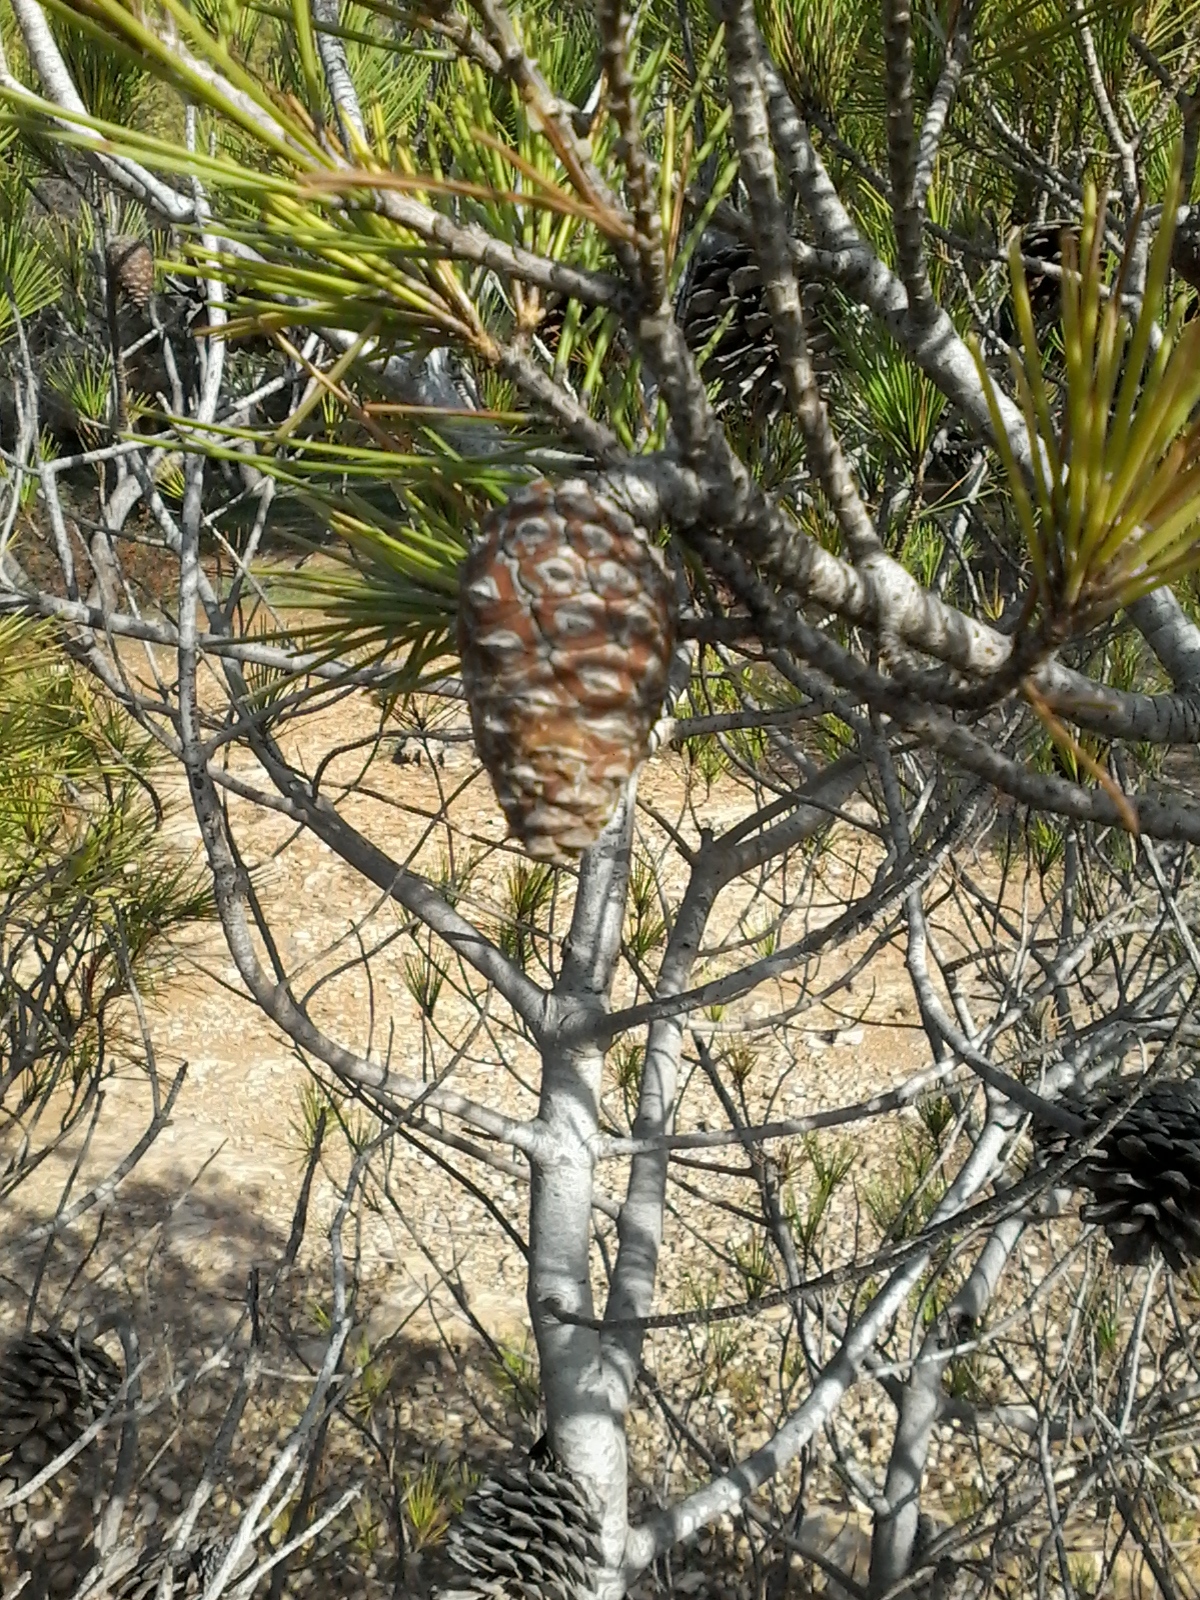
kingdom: Plantae
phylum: Tracheophyta
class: Pinopsida
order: Pinales
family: Pinaceae
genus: Pinus
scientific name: Pinus halepensis
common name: Aleppo pine
